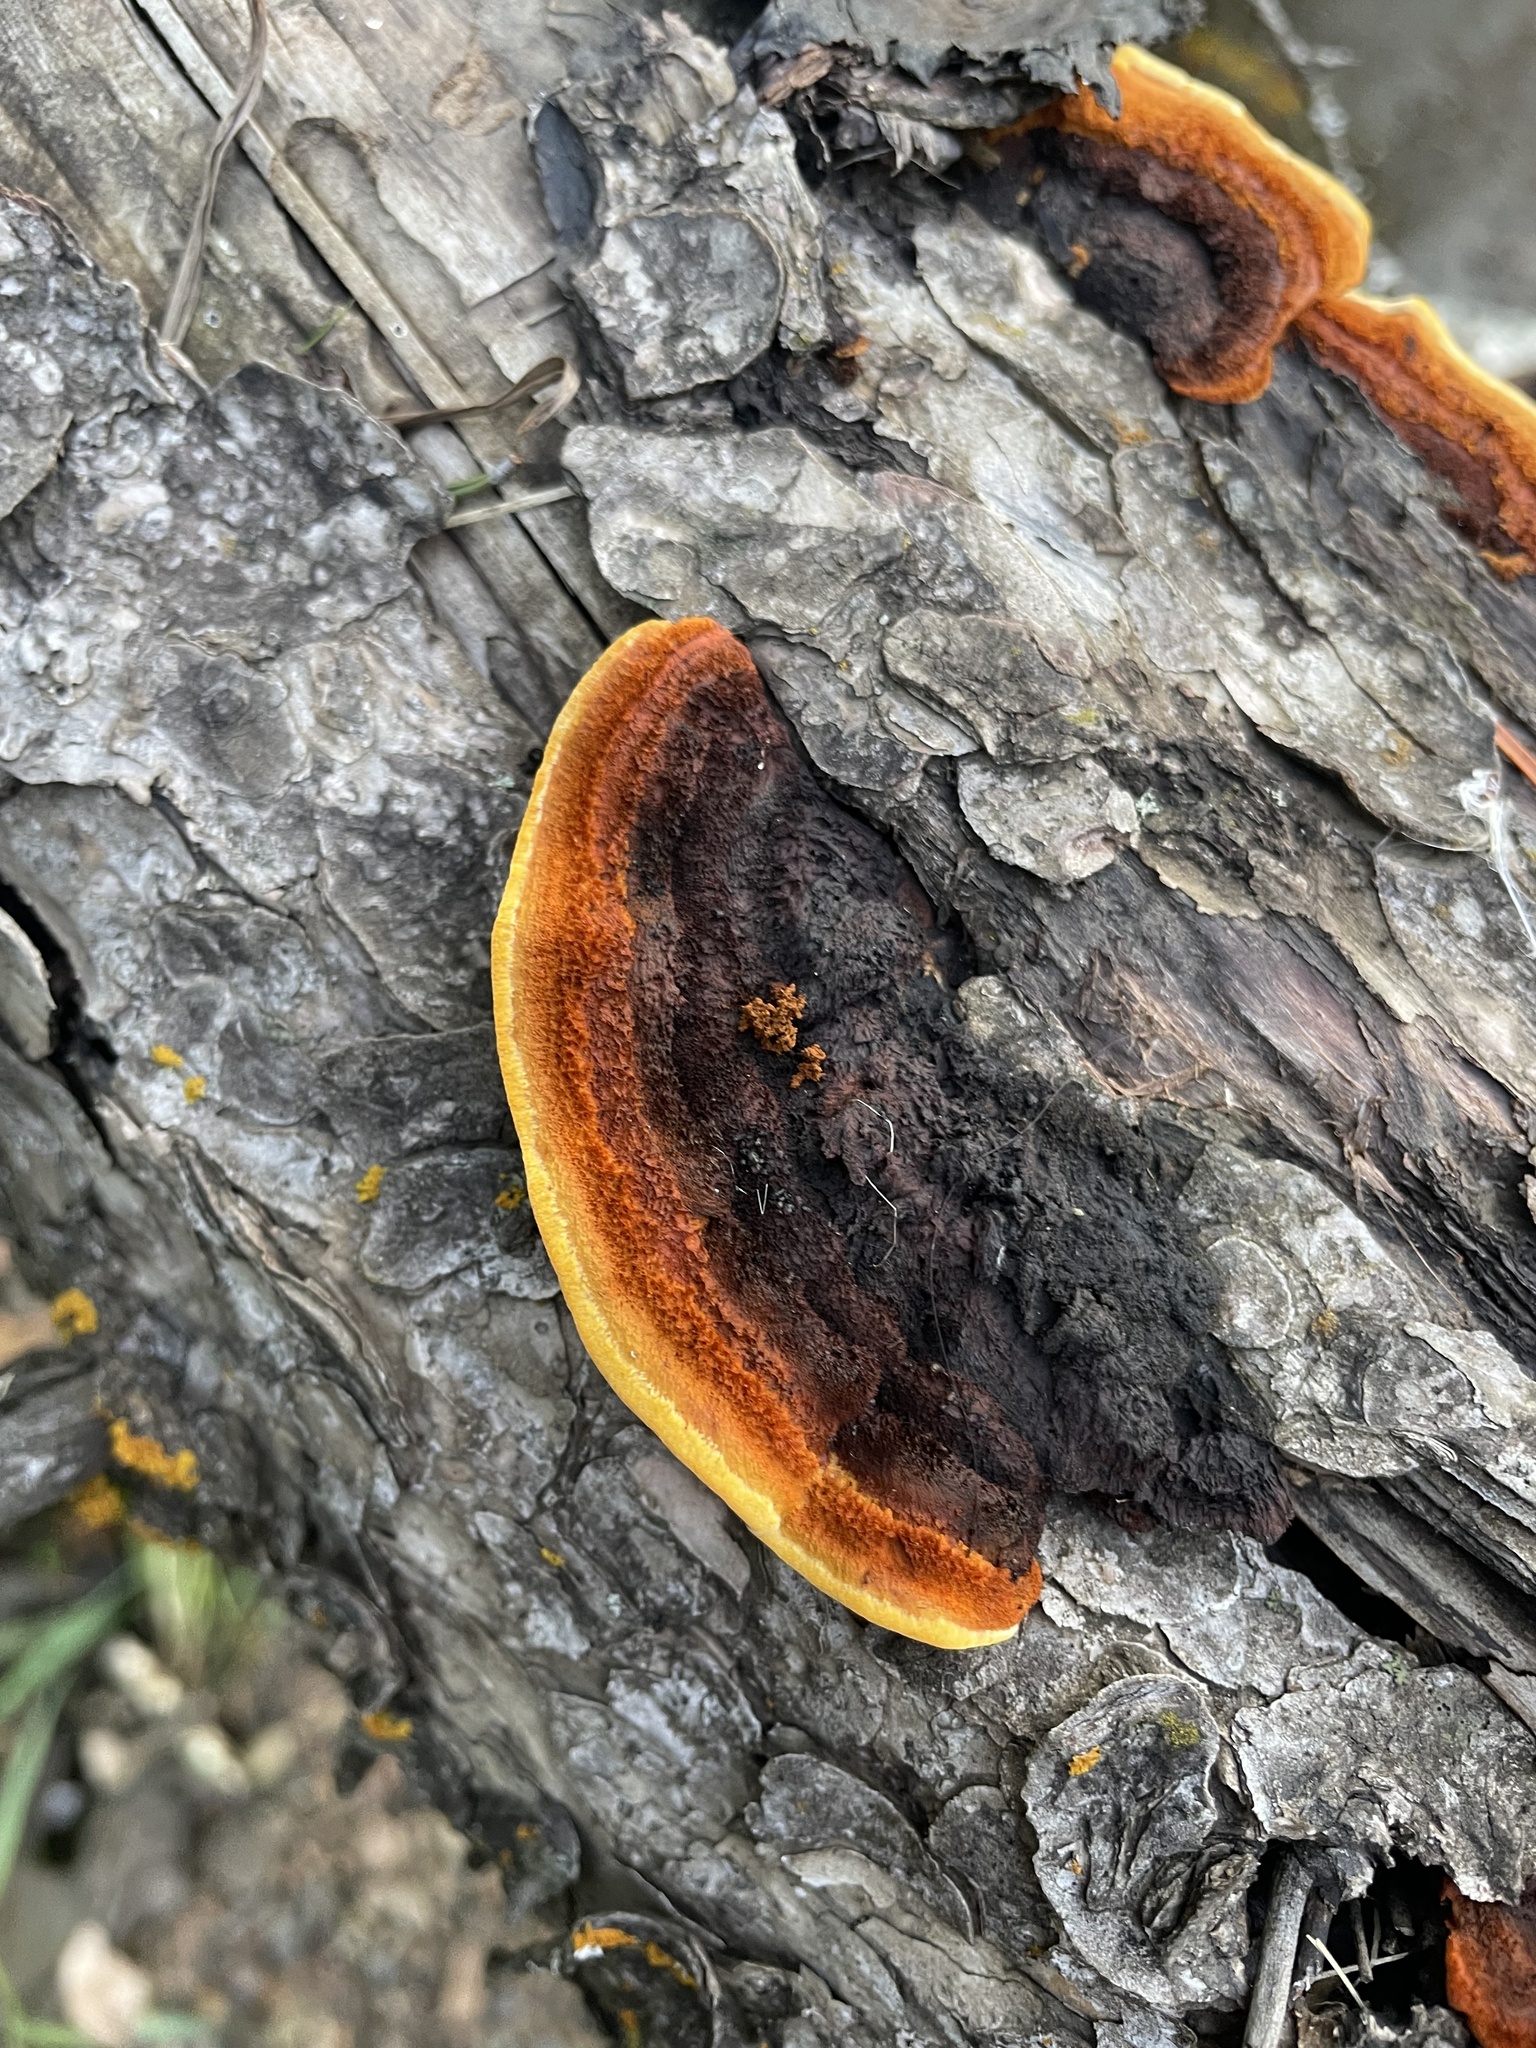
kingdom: Fungi
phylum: Basidiomycota
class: Agaricomycetes
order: Gloeophyllales
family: Gloeophyllaceae
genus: Gloeophyllum
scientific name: Gloeophyllum sepiarium
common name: Conifer mazegill
